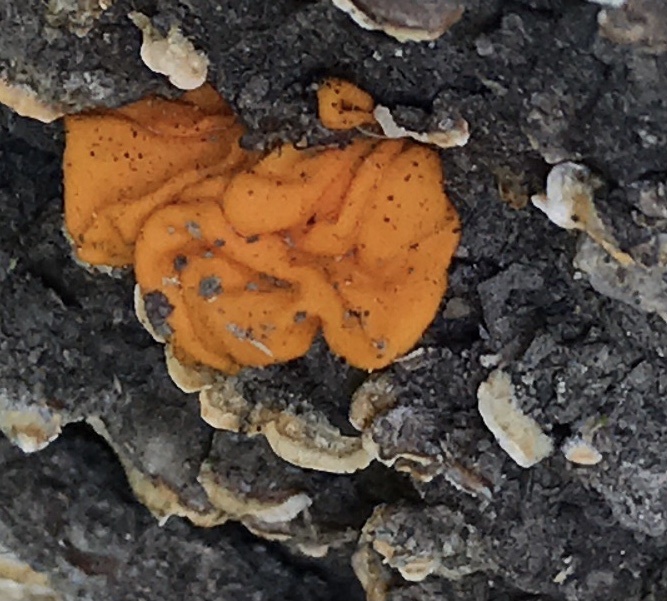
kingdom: Fungi
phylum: Basidiomycota
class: Tremellomycetes
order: Tremellales
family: Naemateliaceae
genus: Naematelia
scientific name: Naematelia aurantia
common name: Golden ear
